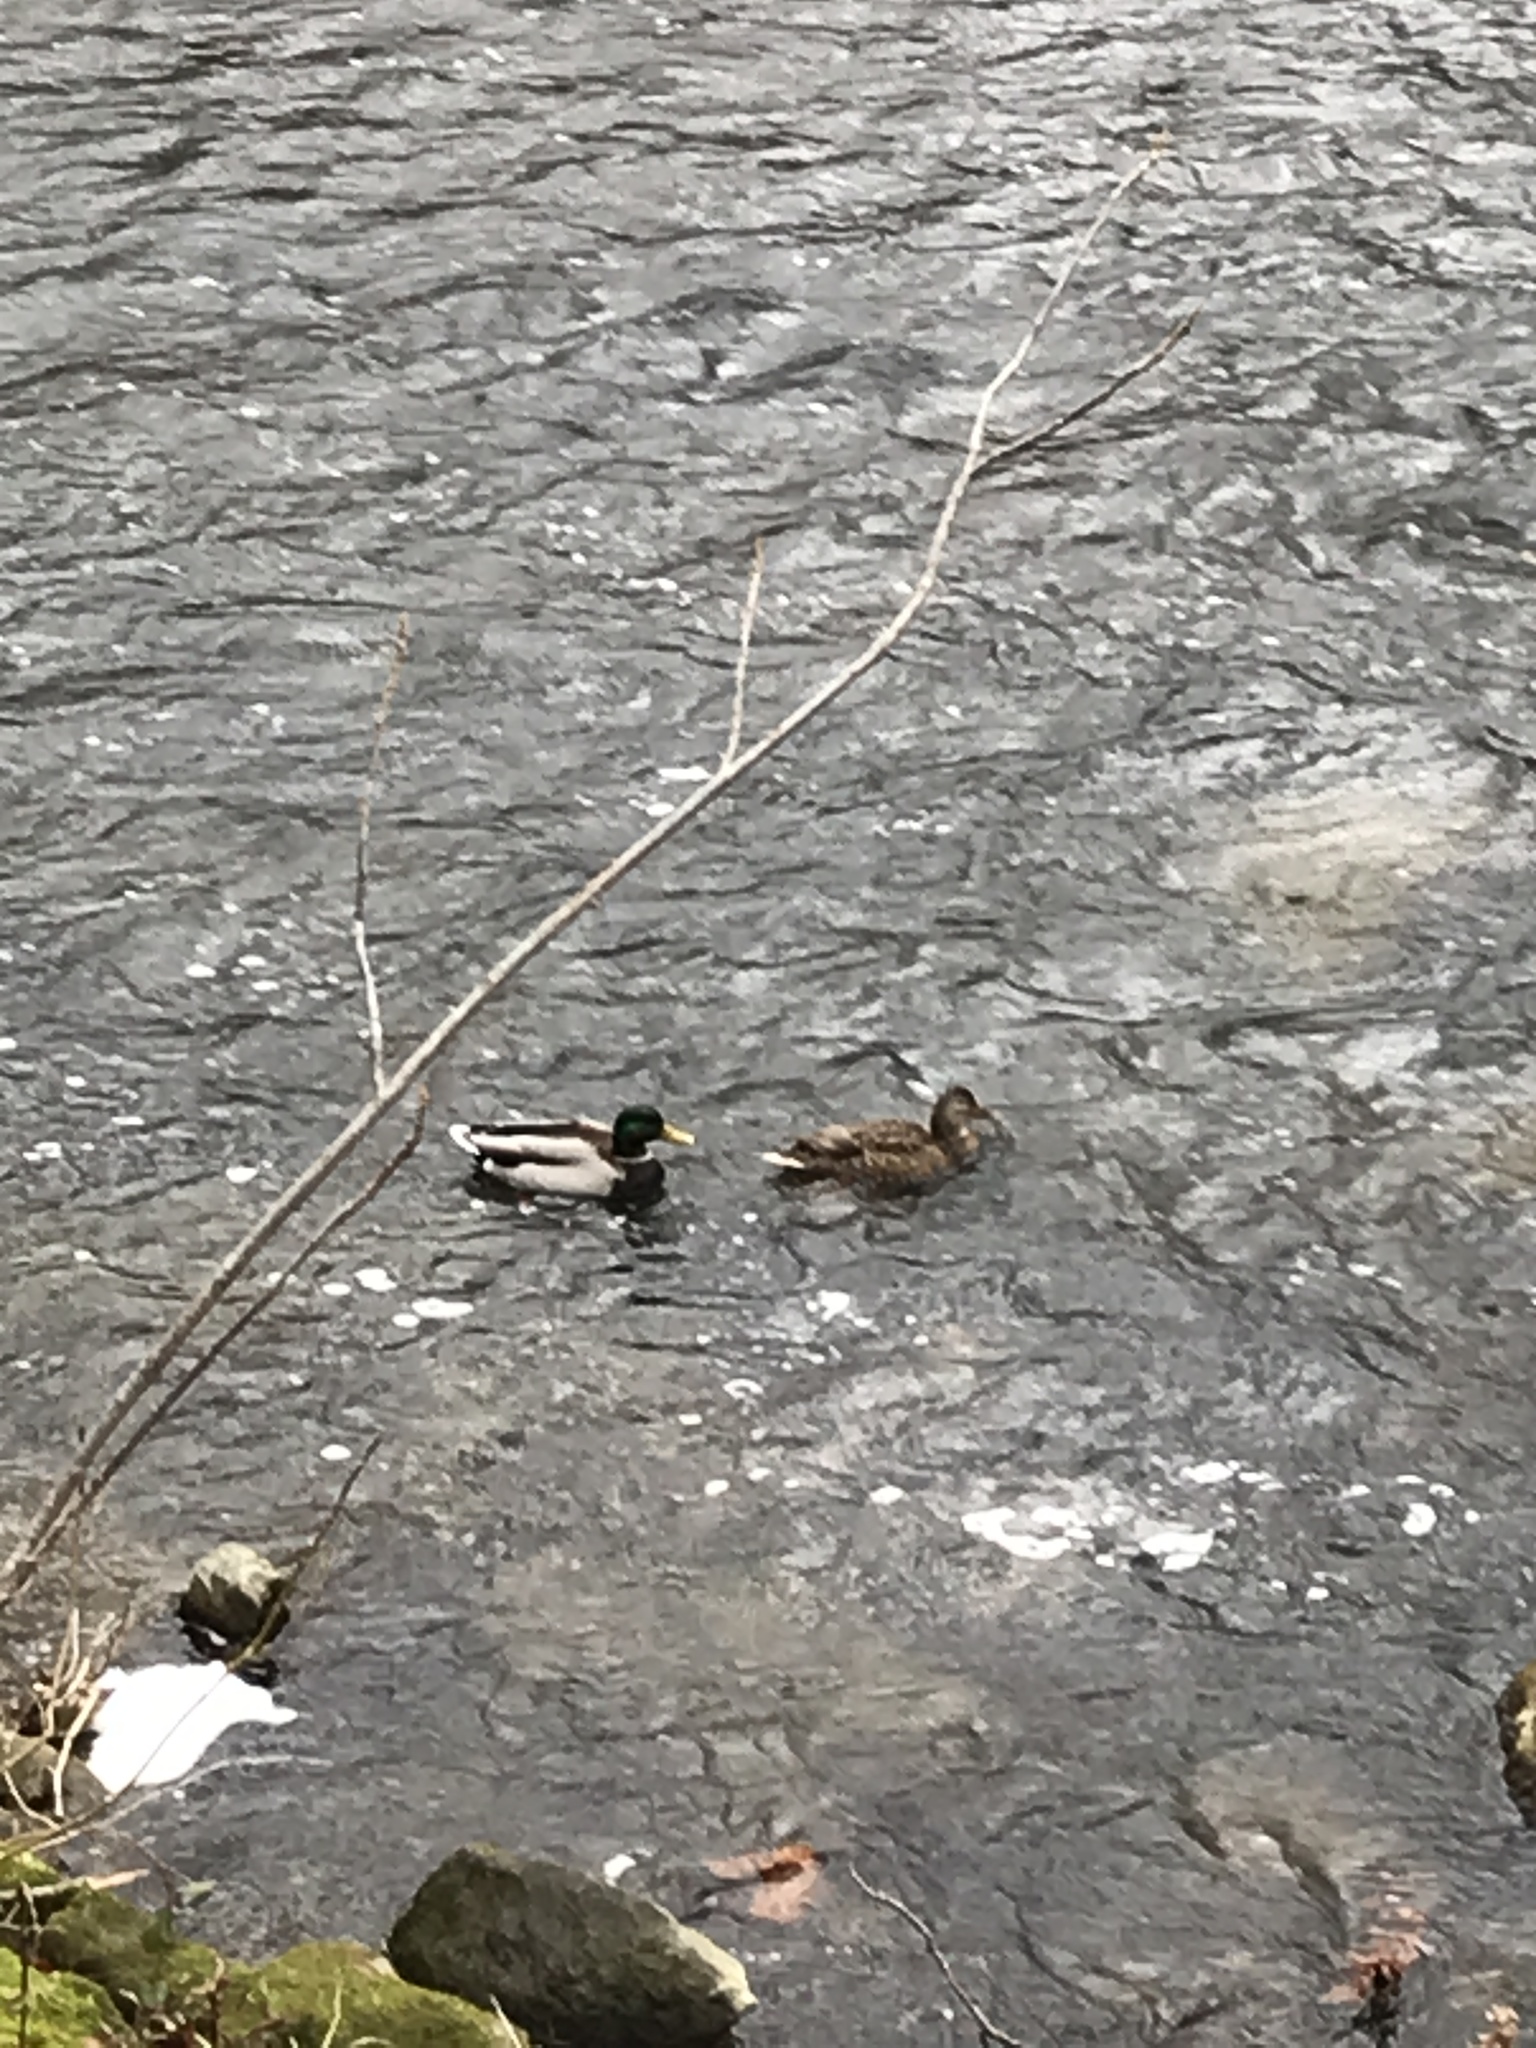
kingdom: Animalia
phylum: Chordata
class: Aves
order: Anseriformes
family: Anatidae
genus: Anas
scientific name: Anas platyrhynchos
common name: Mallard
